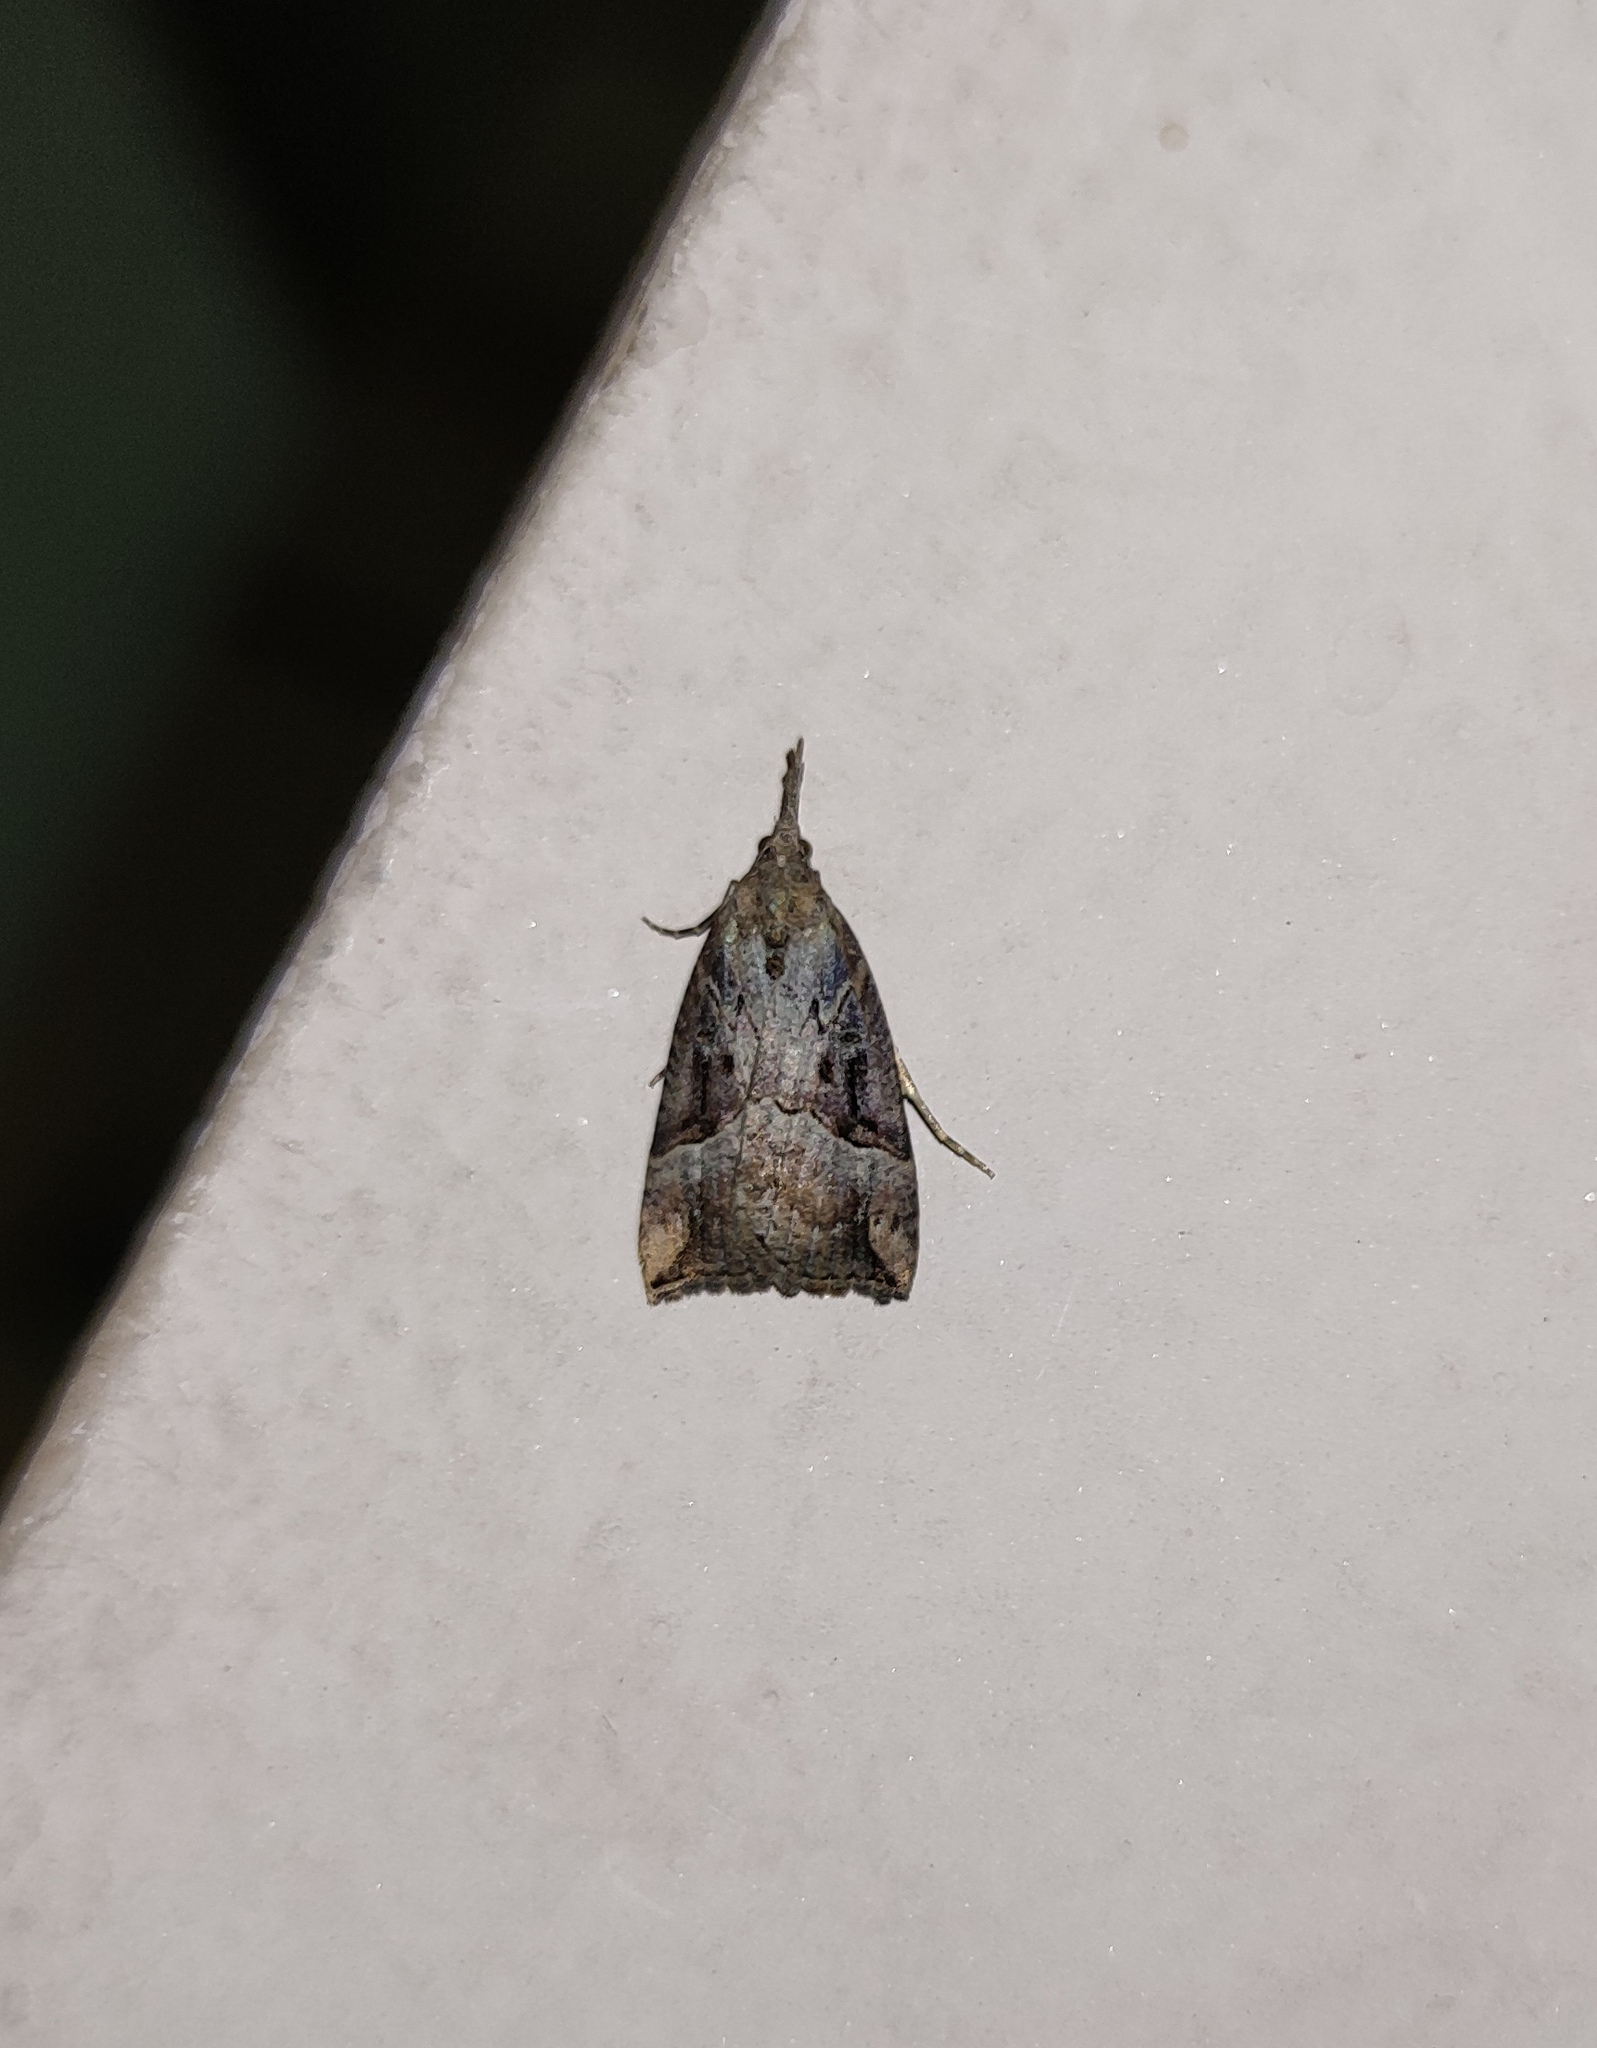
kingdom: Animalia
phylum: Arthropoda
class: Insecta
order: Lepidoptera
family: Erebidae
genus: Hypena
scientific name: Hypena rostralis
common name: Buttoned snout
